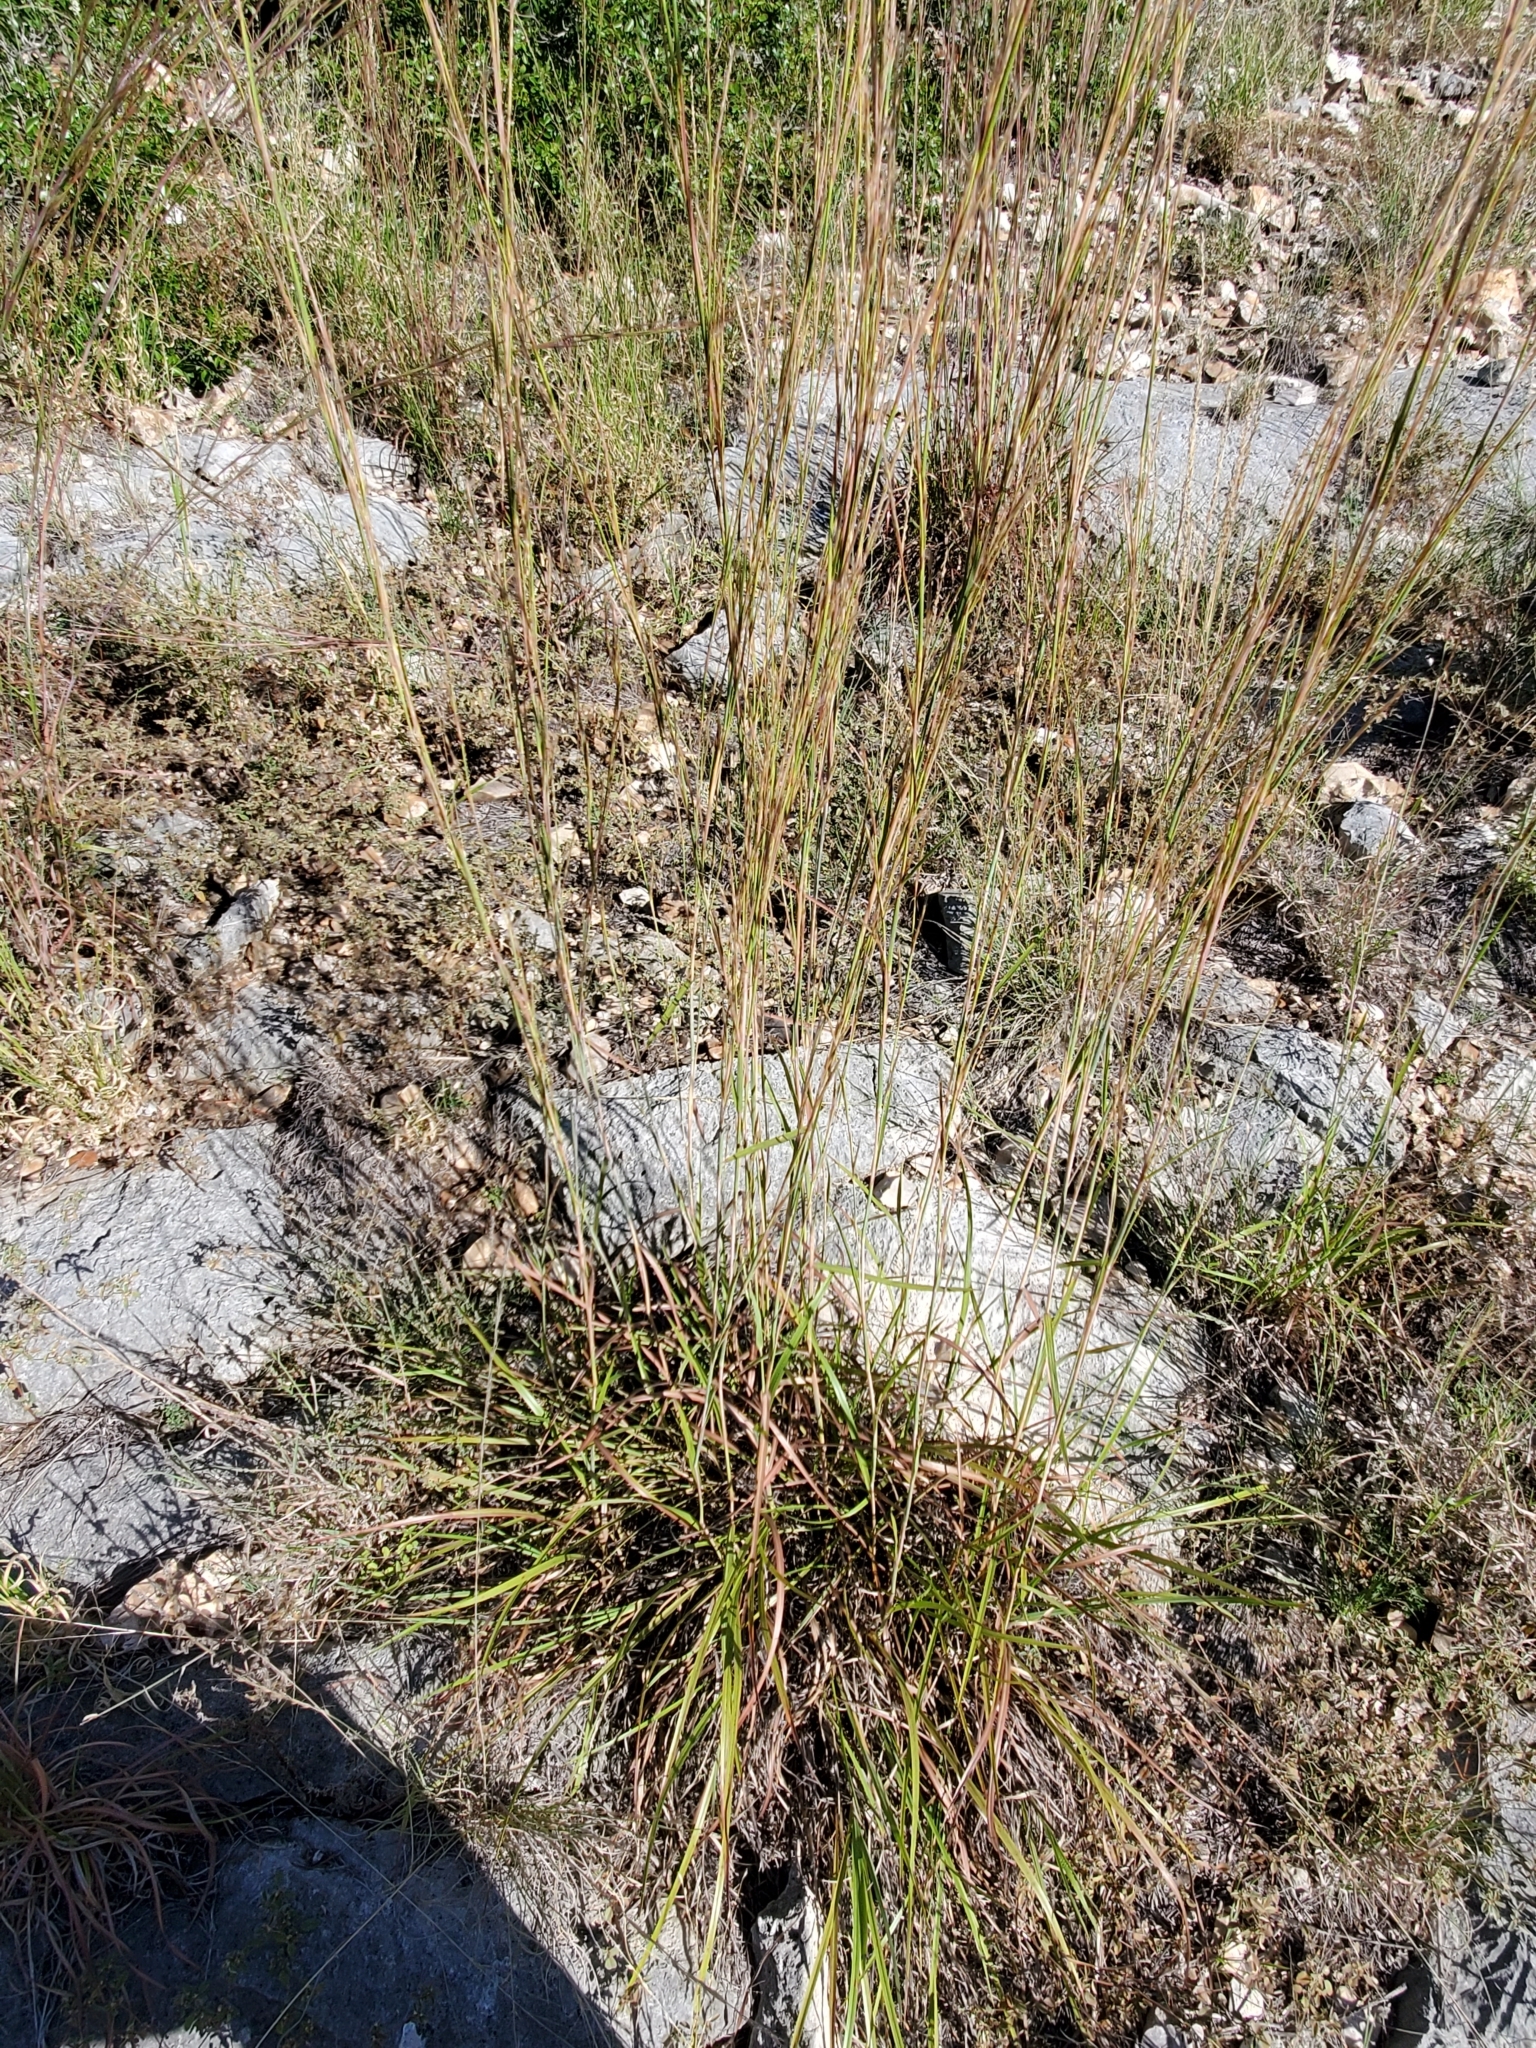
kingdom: Plantae
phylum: Tracheophyta
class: Liliopsida
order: Poales
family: Poaceae
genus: Schizachyrium
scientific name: Schizachyrium scoparium
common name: Little bluestem
